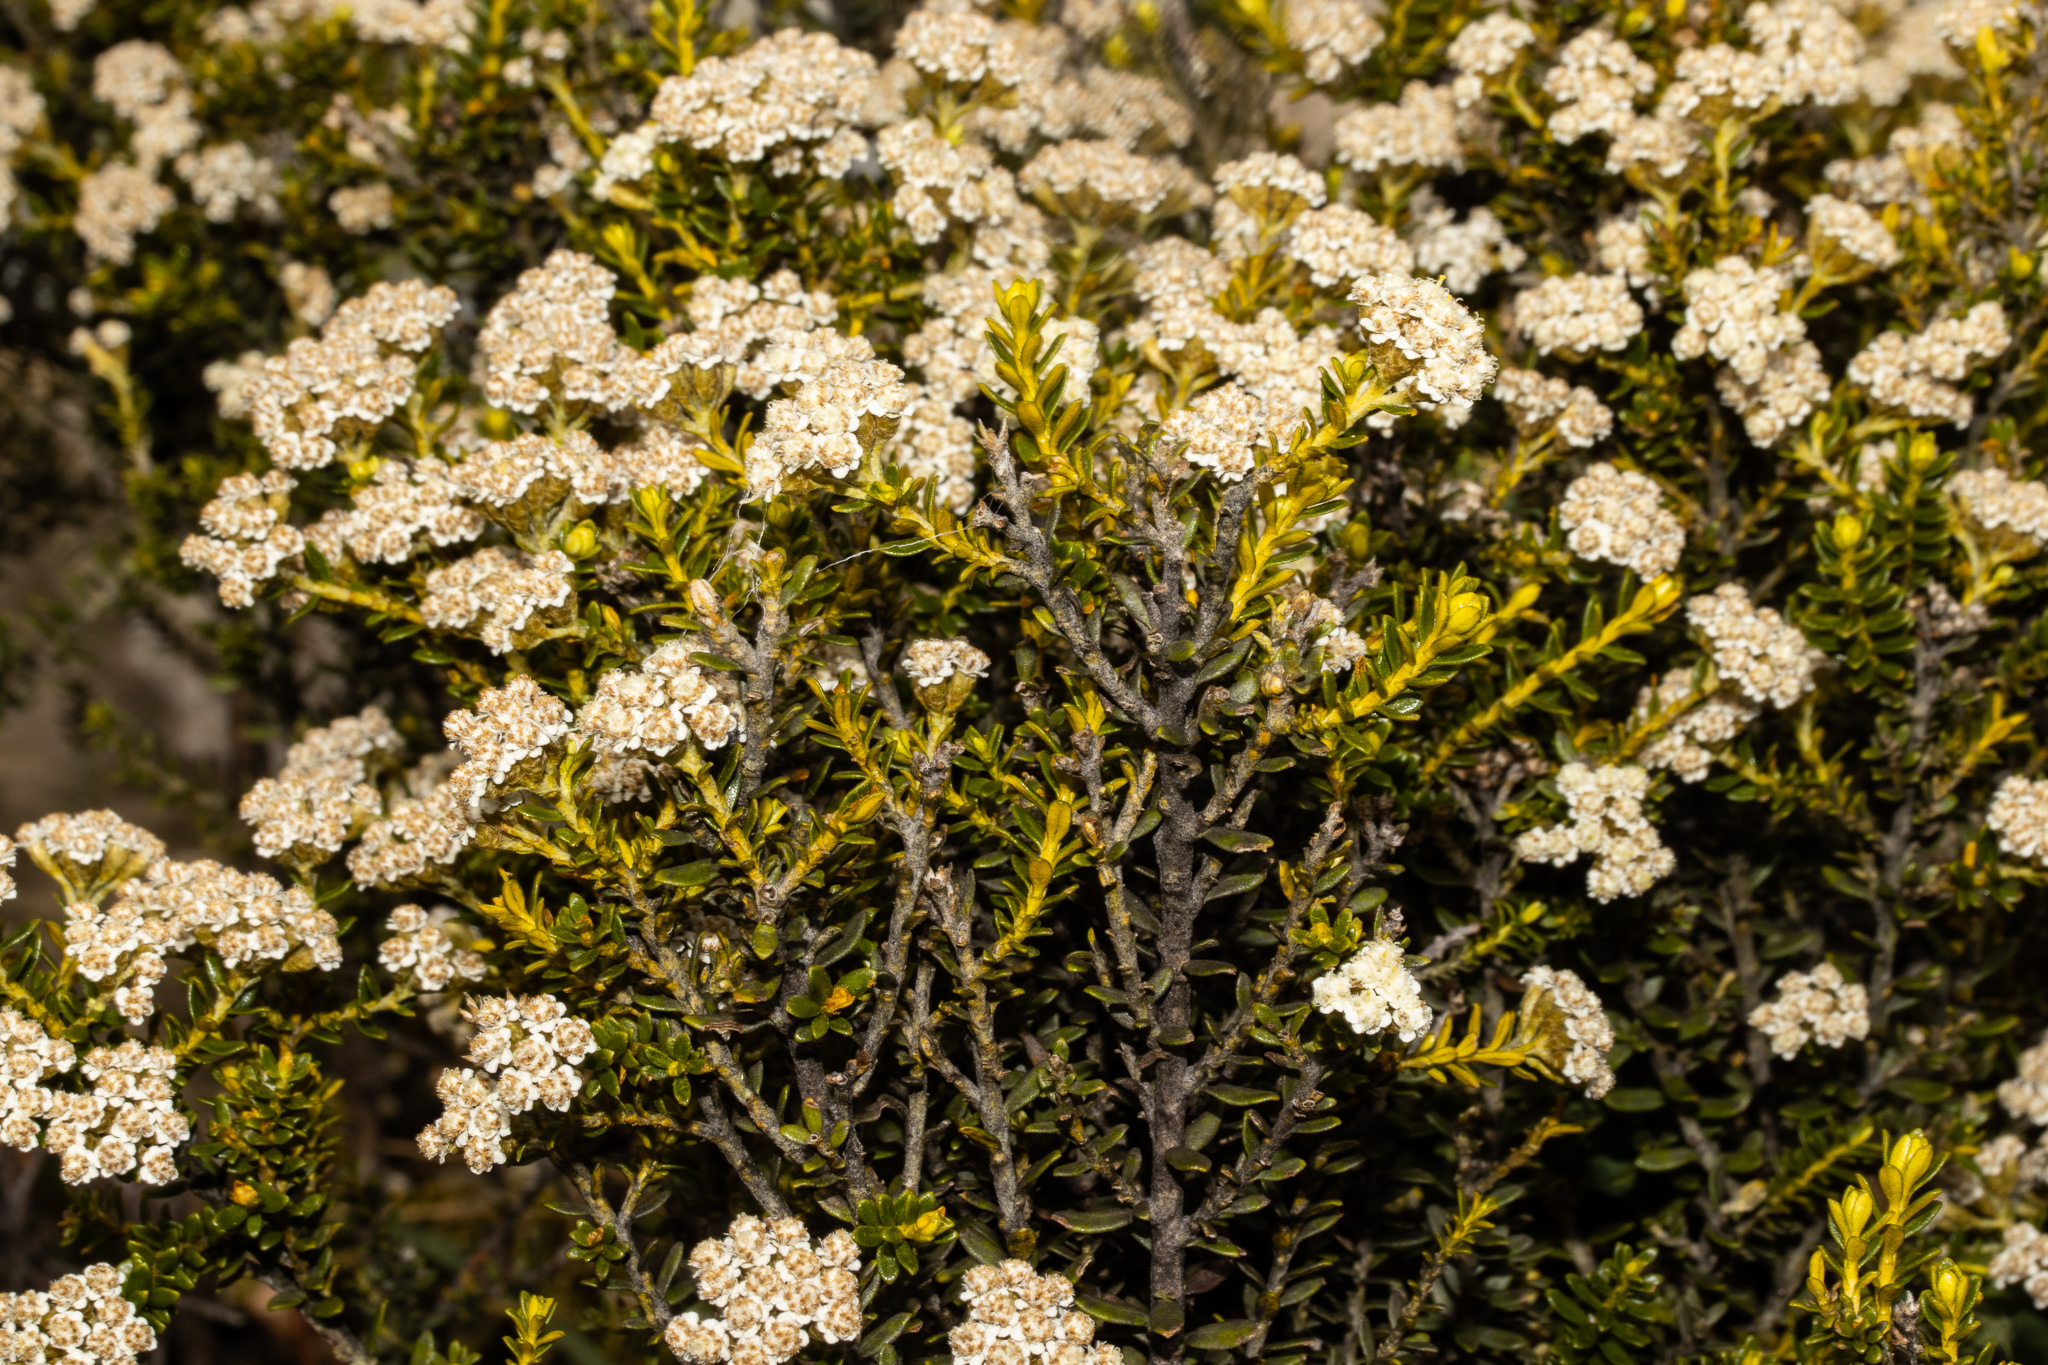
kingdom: Plantae
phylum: Tracheophyta
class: Magnoliopsida
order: Asterales
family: Asteraceae
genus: Ozothamnus
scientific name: Ozothamnus leptophyllus
